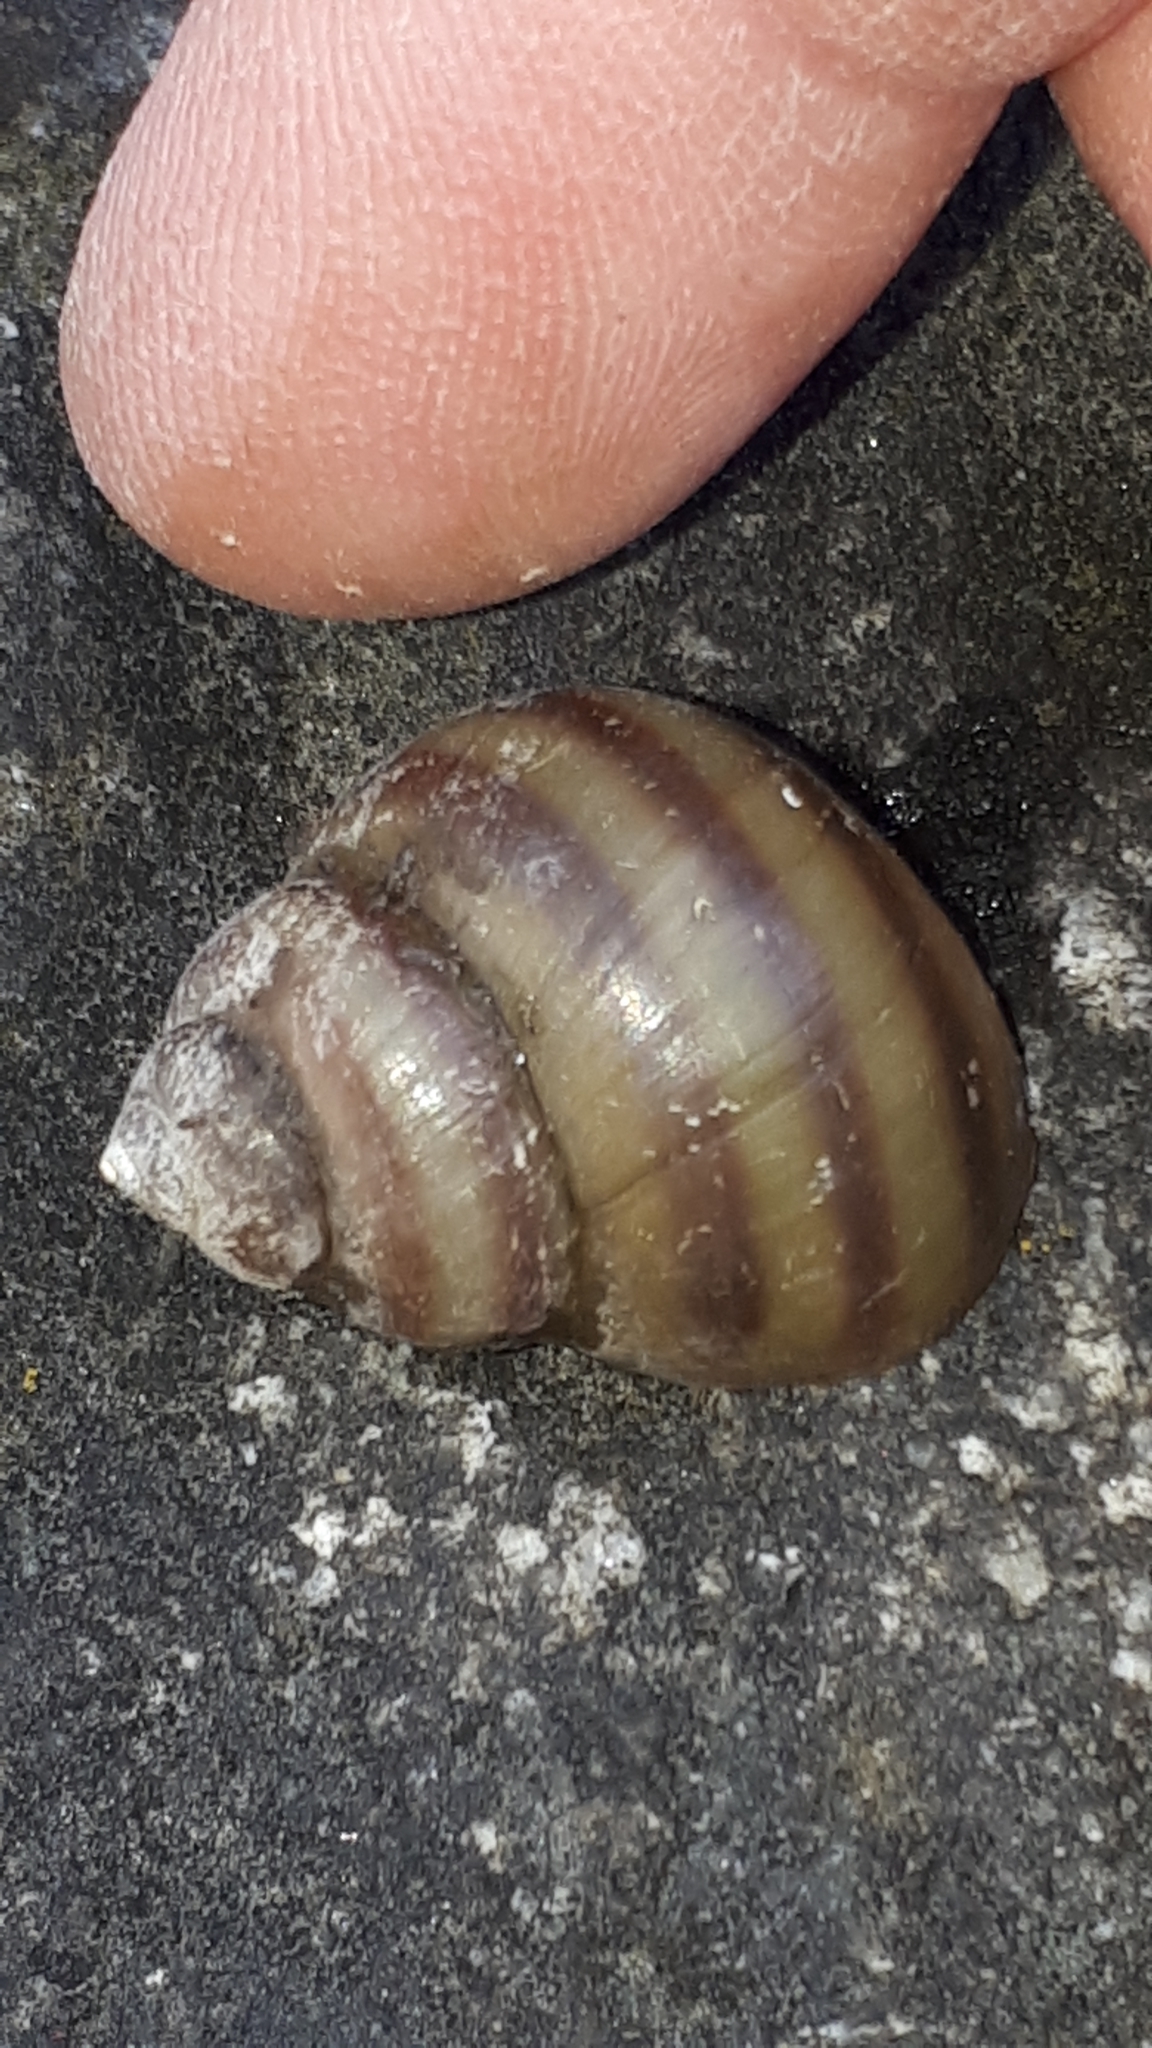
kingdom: Animalia
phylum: Mollusca
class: Gastropoda
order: Architaenioglossa
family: Viviparidae
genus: Viviparus
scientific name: Viviparus acerosus
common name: Danube river snail
